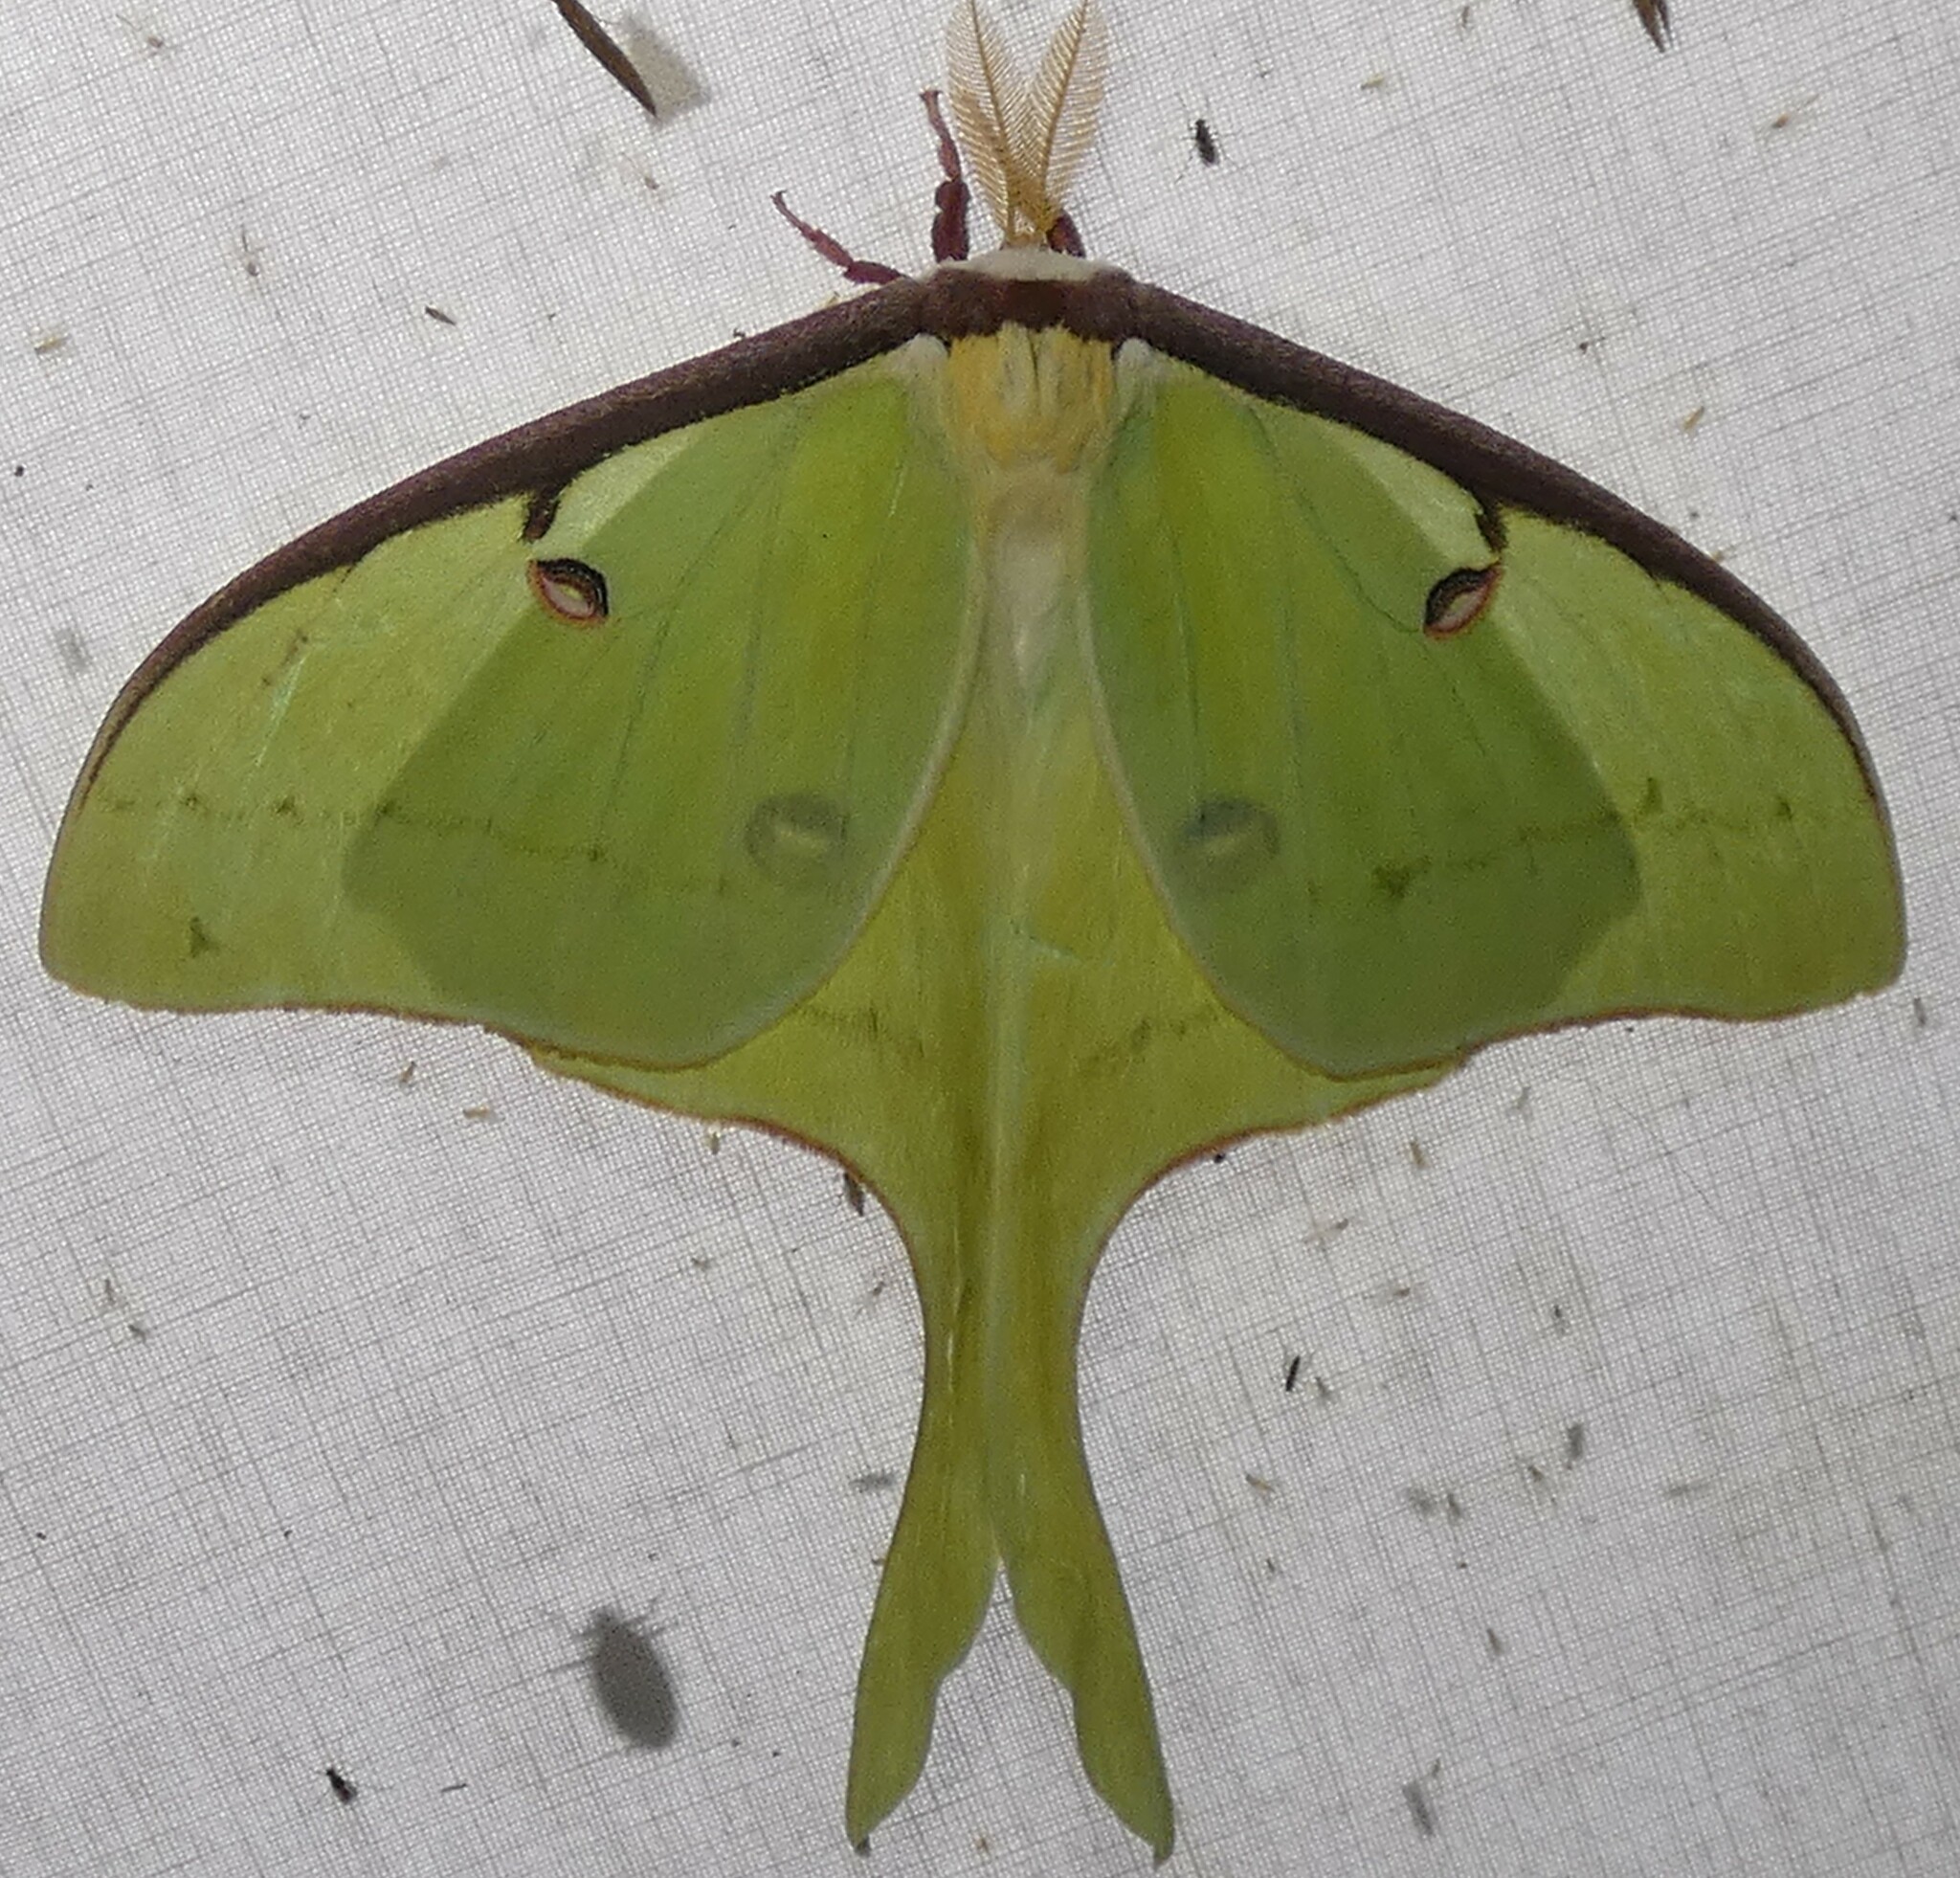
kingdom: Animalia
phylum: Arthropoda
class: Insecta
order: Lepidoptera
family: Saturniidae
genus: Actias
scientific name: Actias luna
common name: Luna moth
